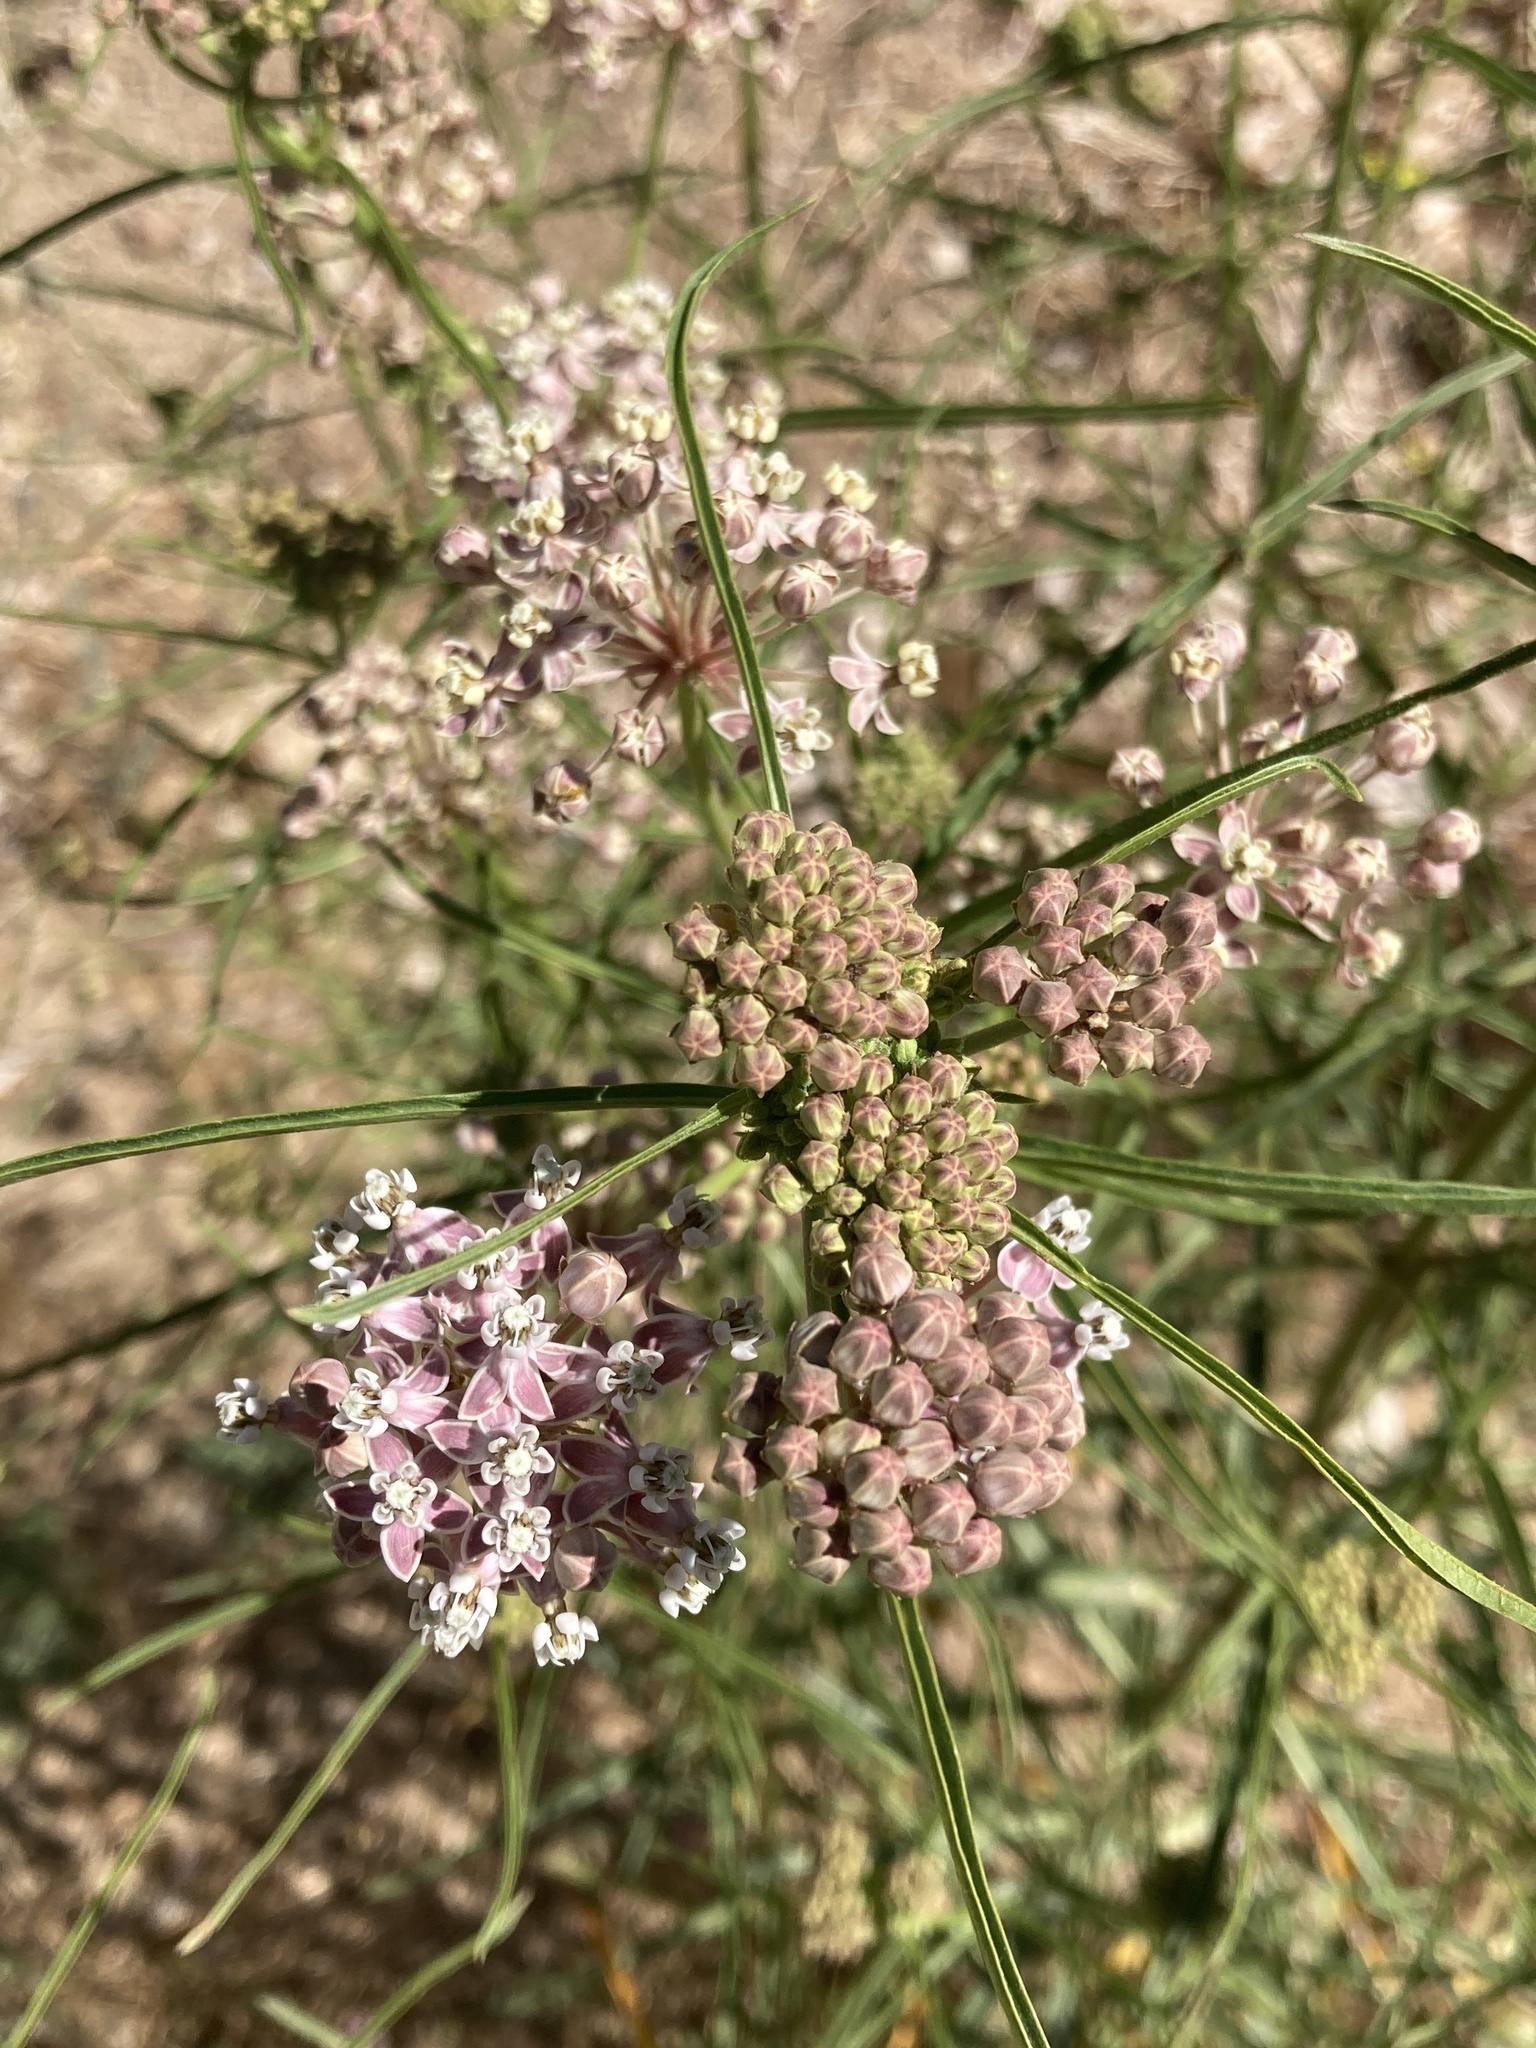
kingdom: Plantae
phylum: Tracheophyta
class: Magnoliopsida
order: Gentianales
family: Apocynaceae
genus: Asclepias
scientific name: Asclepias fascicularis
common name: Mexican milkweed
